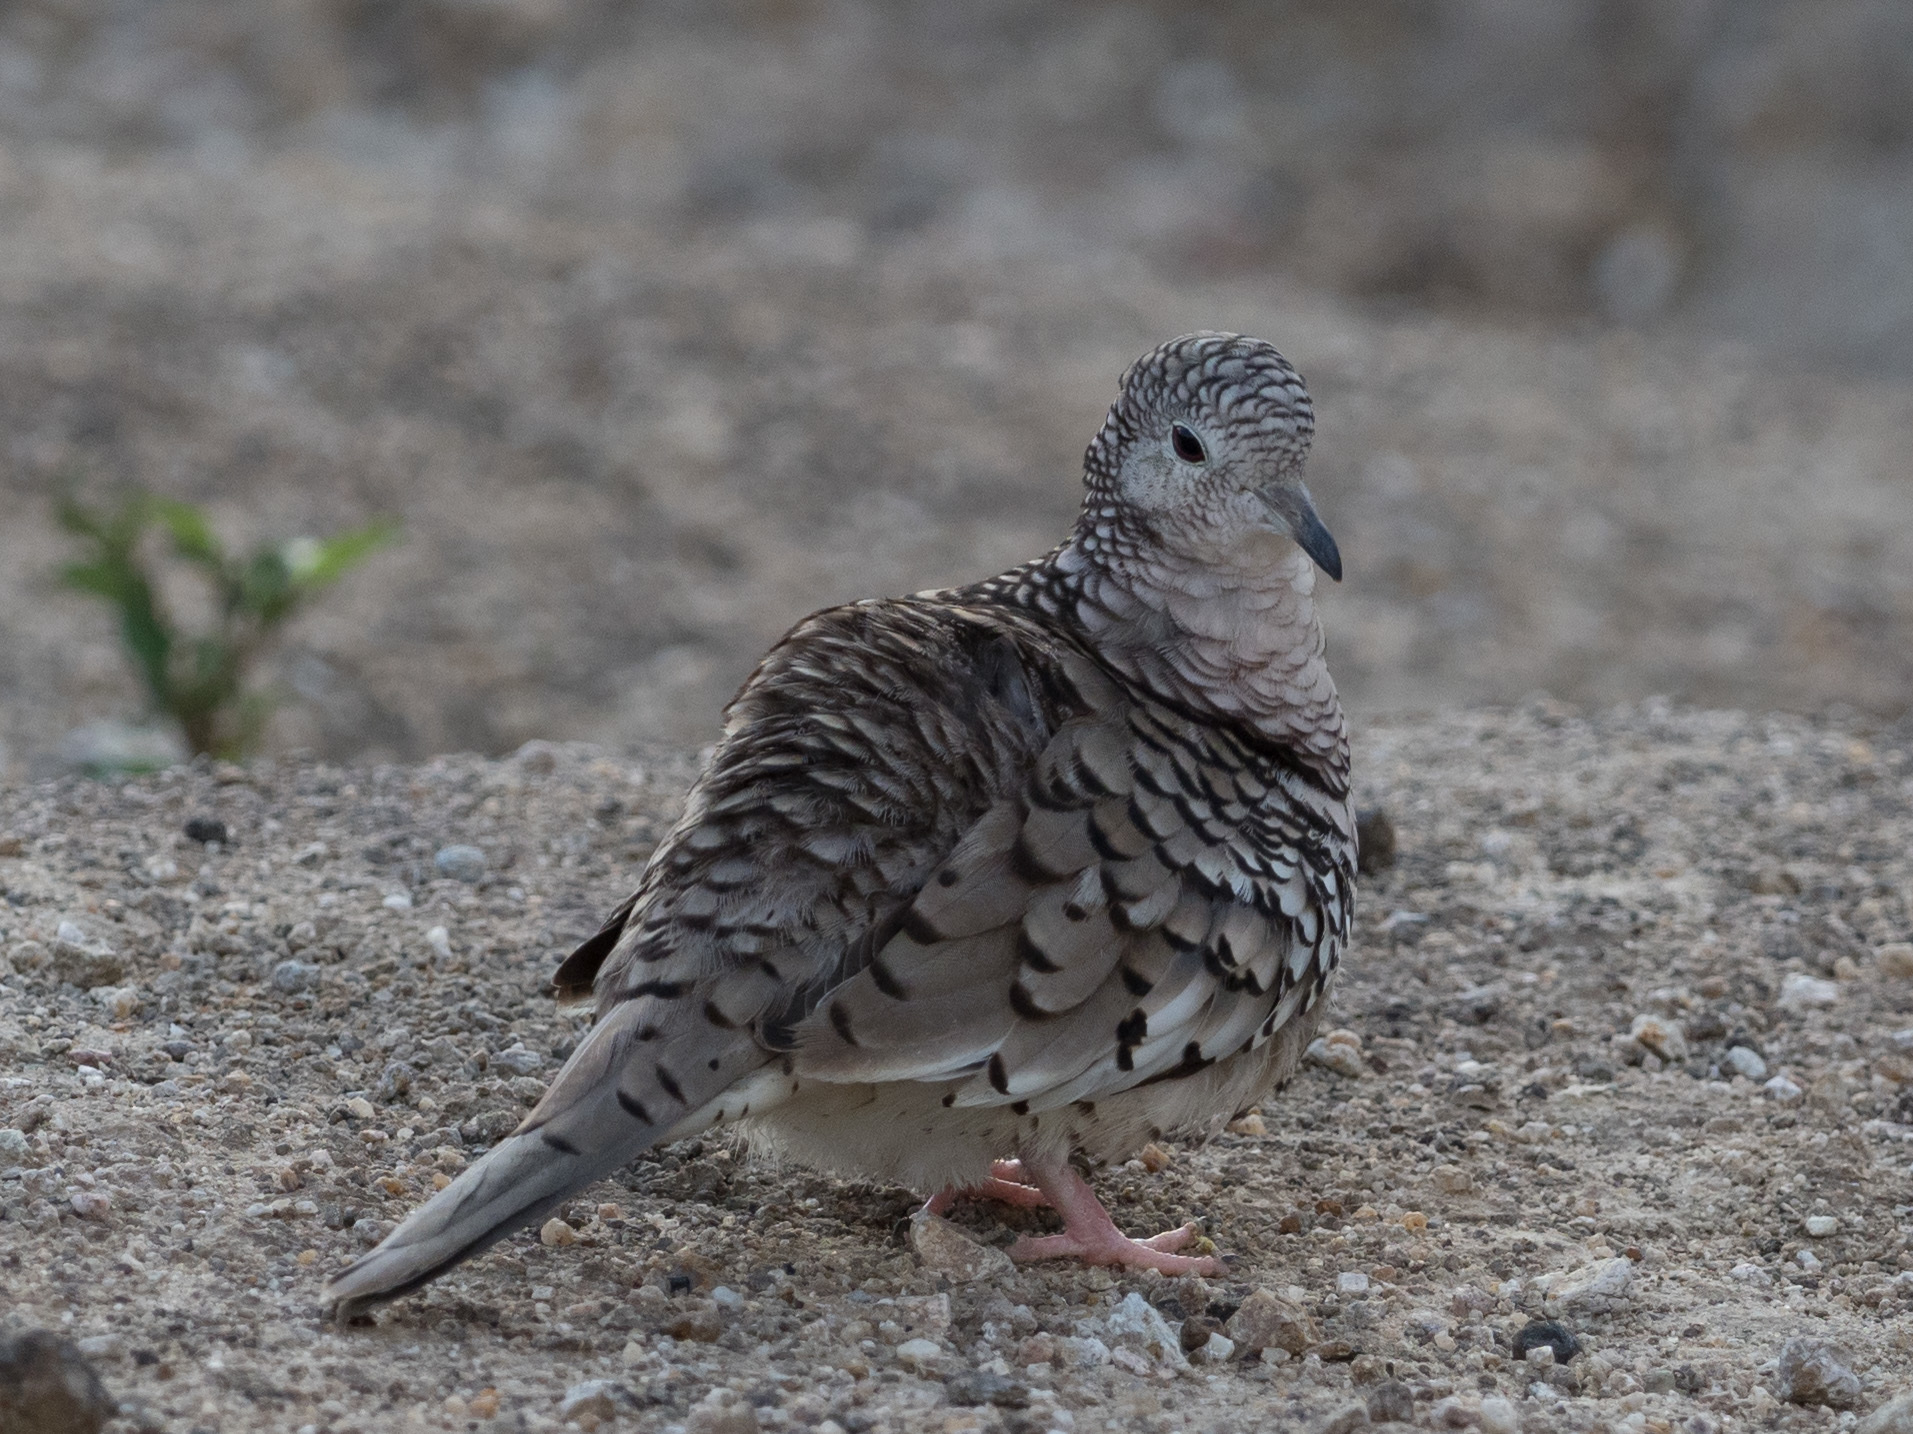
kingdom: Animalia
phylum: Chordata
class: Aves
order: Columbiformes
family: Columbidae
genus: Columbina
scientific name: Columbina squammata
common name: Scaled dove
